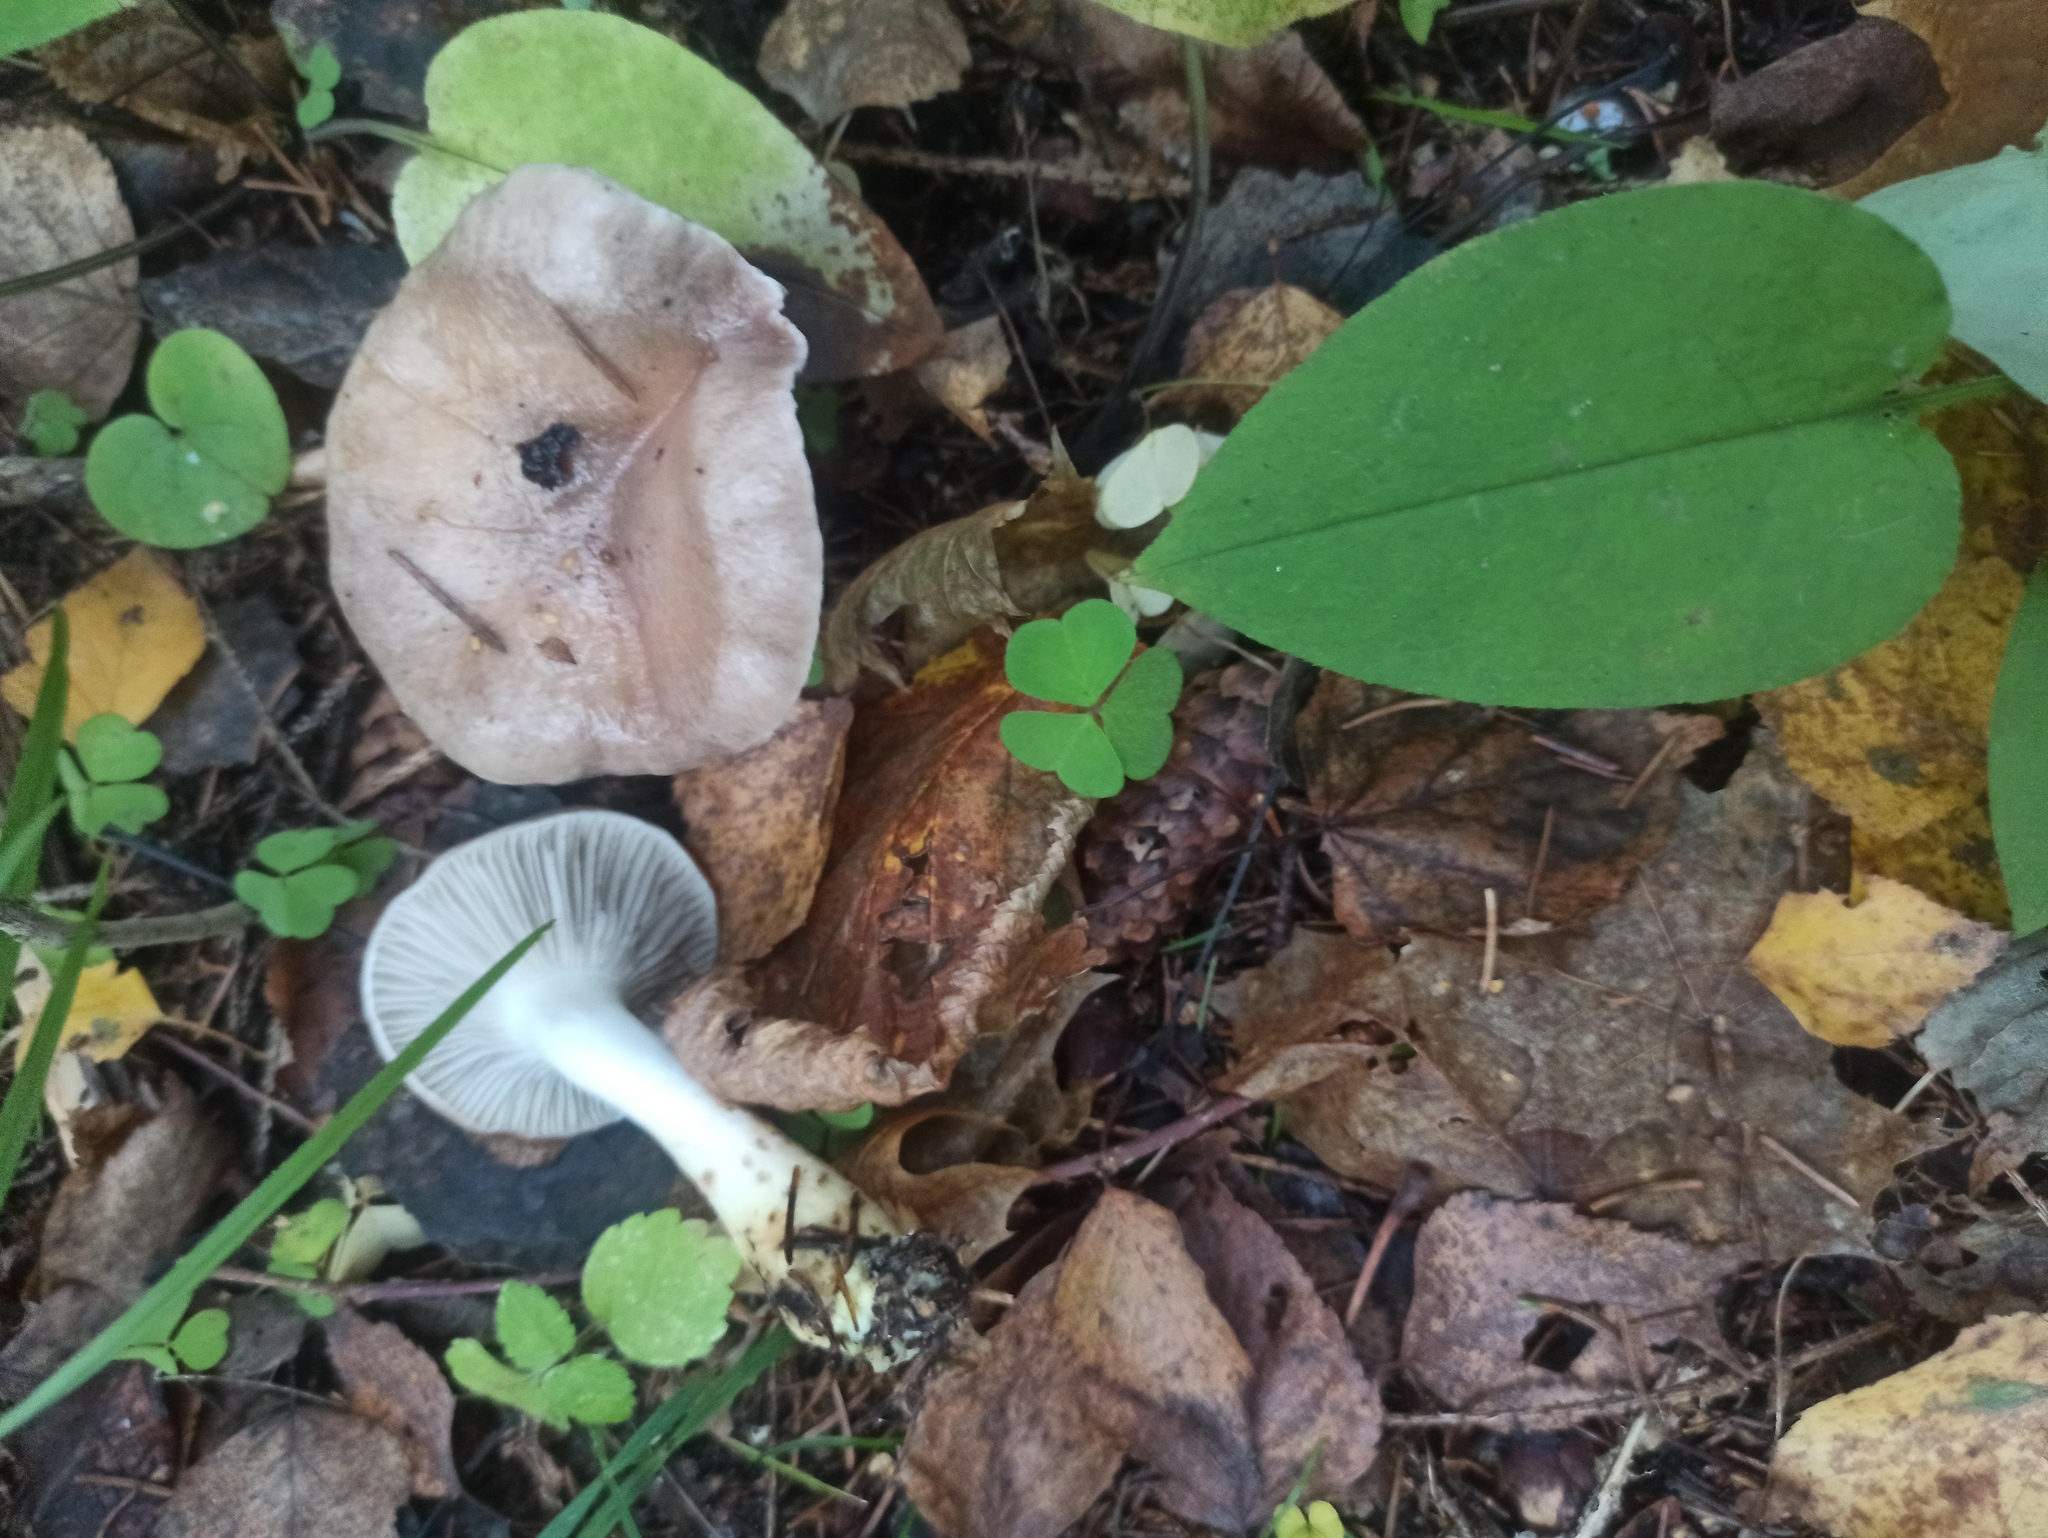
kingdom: Fungi
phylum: Basidiomycota
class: Agaricomycetes
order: Boletales
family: Gomphidiaceae
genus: Gomphidius
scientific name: Gomphidius glutinosus
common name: Slimy spike
